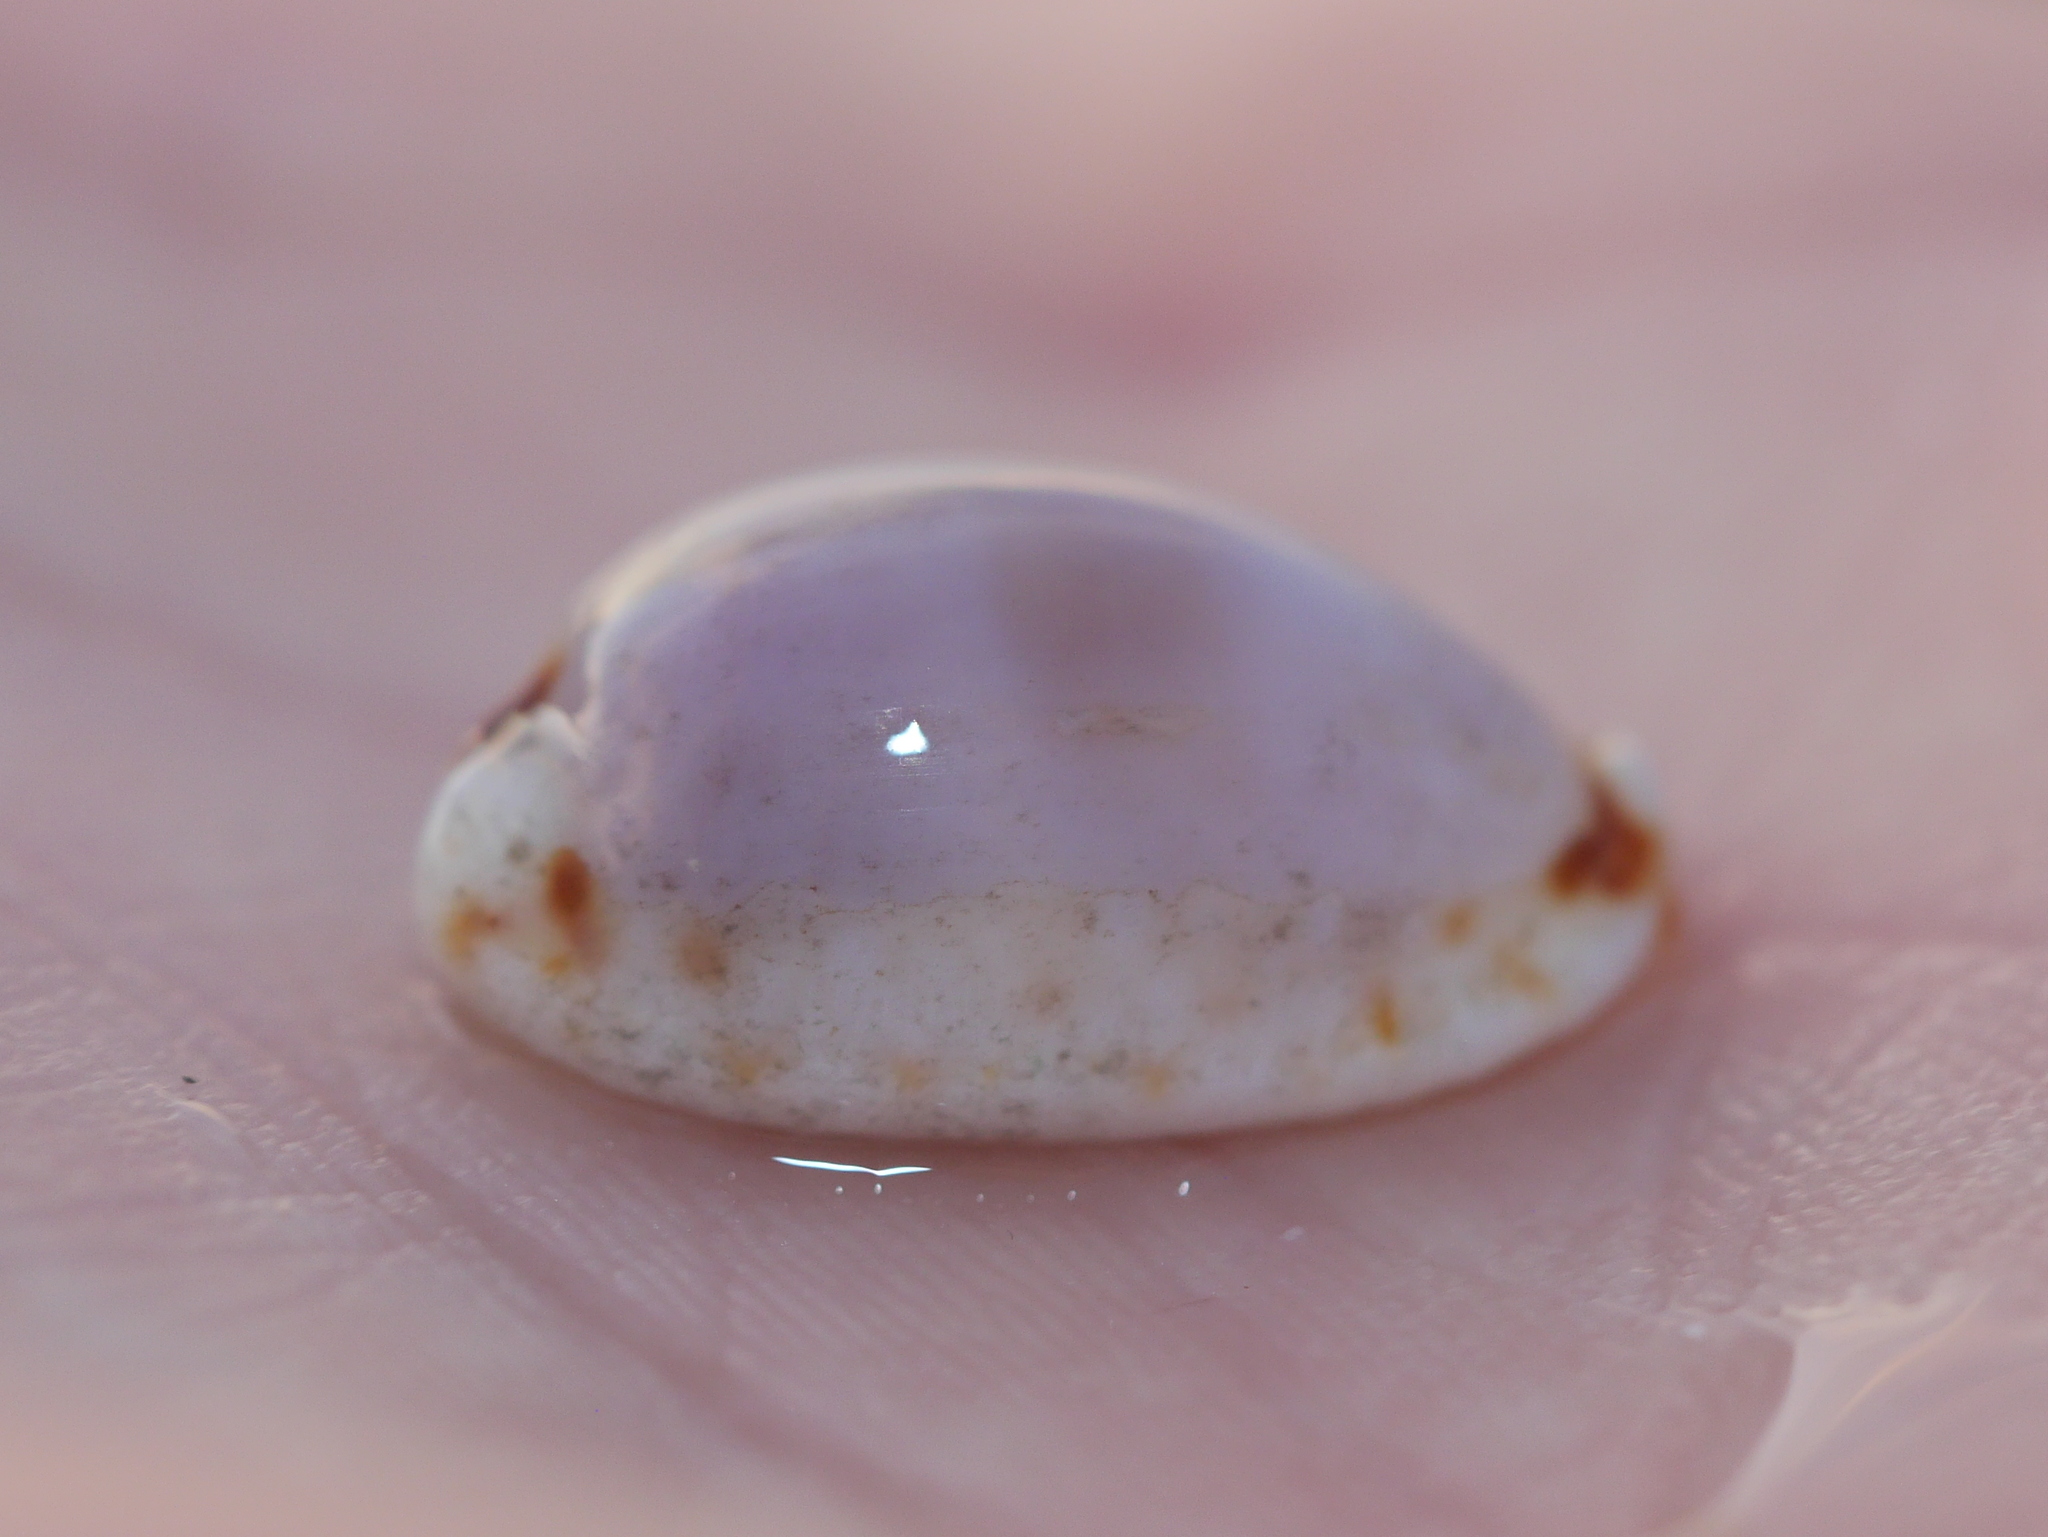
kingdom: Animalia
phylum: Mollusca
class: Gastropoda
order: Littorinimorpha
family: Cypraeidae
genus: Naria
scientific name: Naria gangranosa
